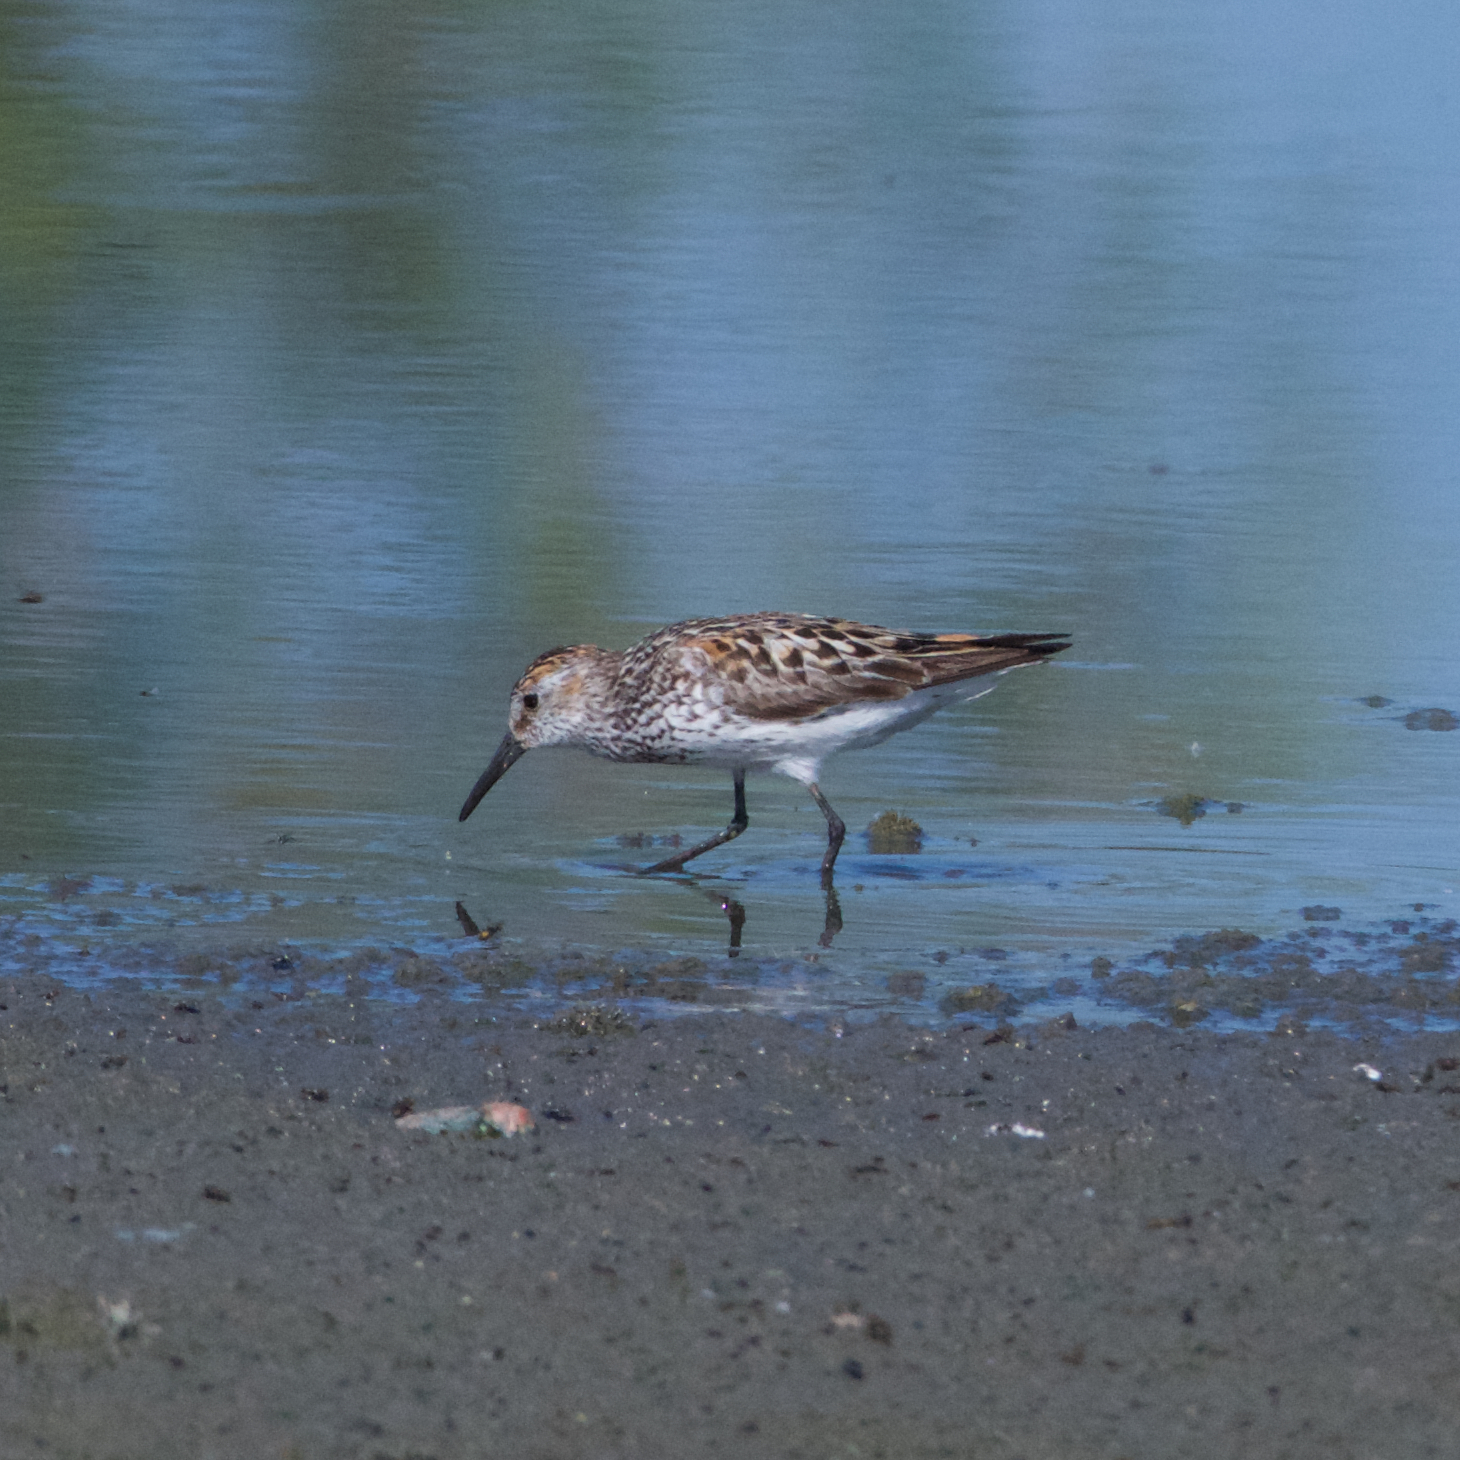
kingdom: Animalia
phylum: Chordata
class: Aves
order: Charadriiformes
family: Scolopacidae
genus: Calidris
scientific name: Calidris mauri
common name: Western sandpiper
